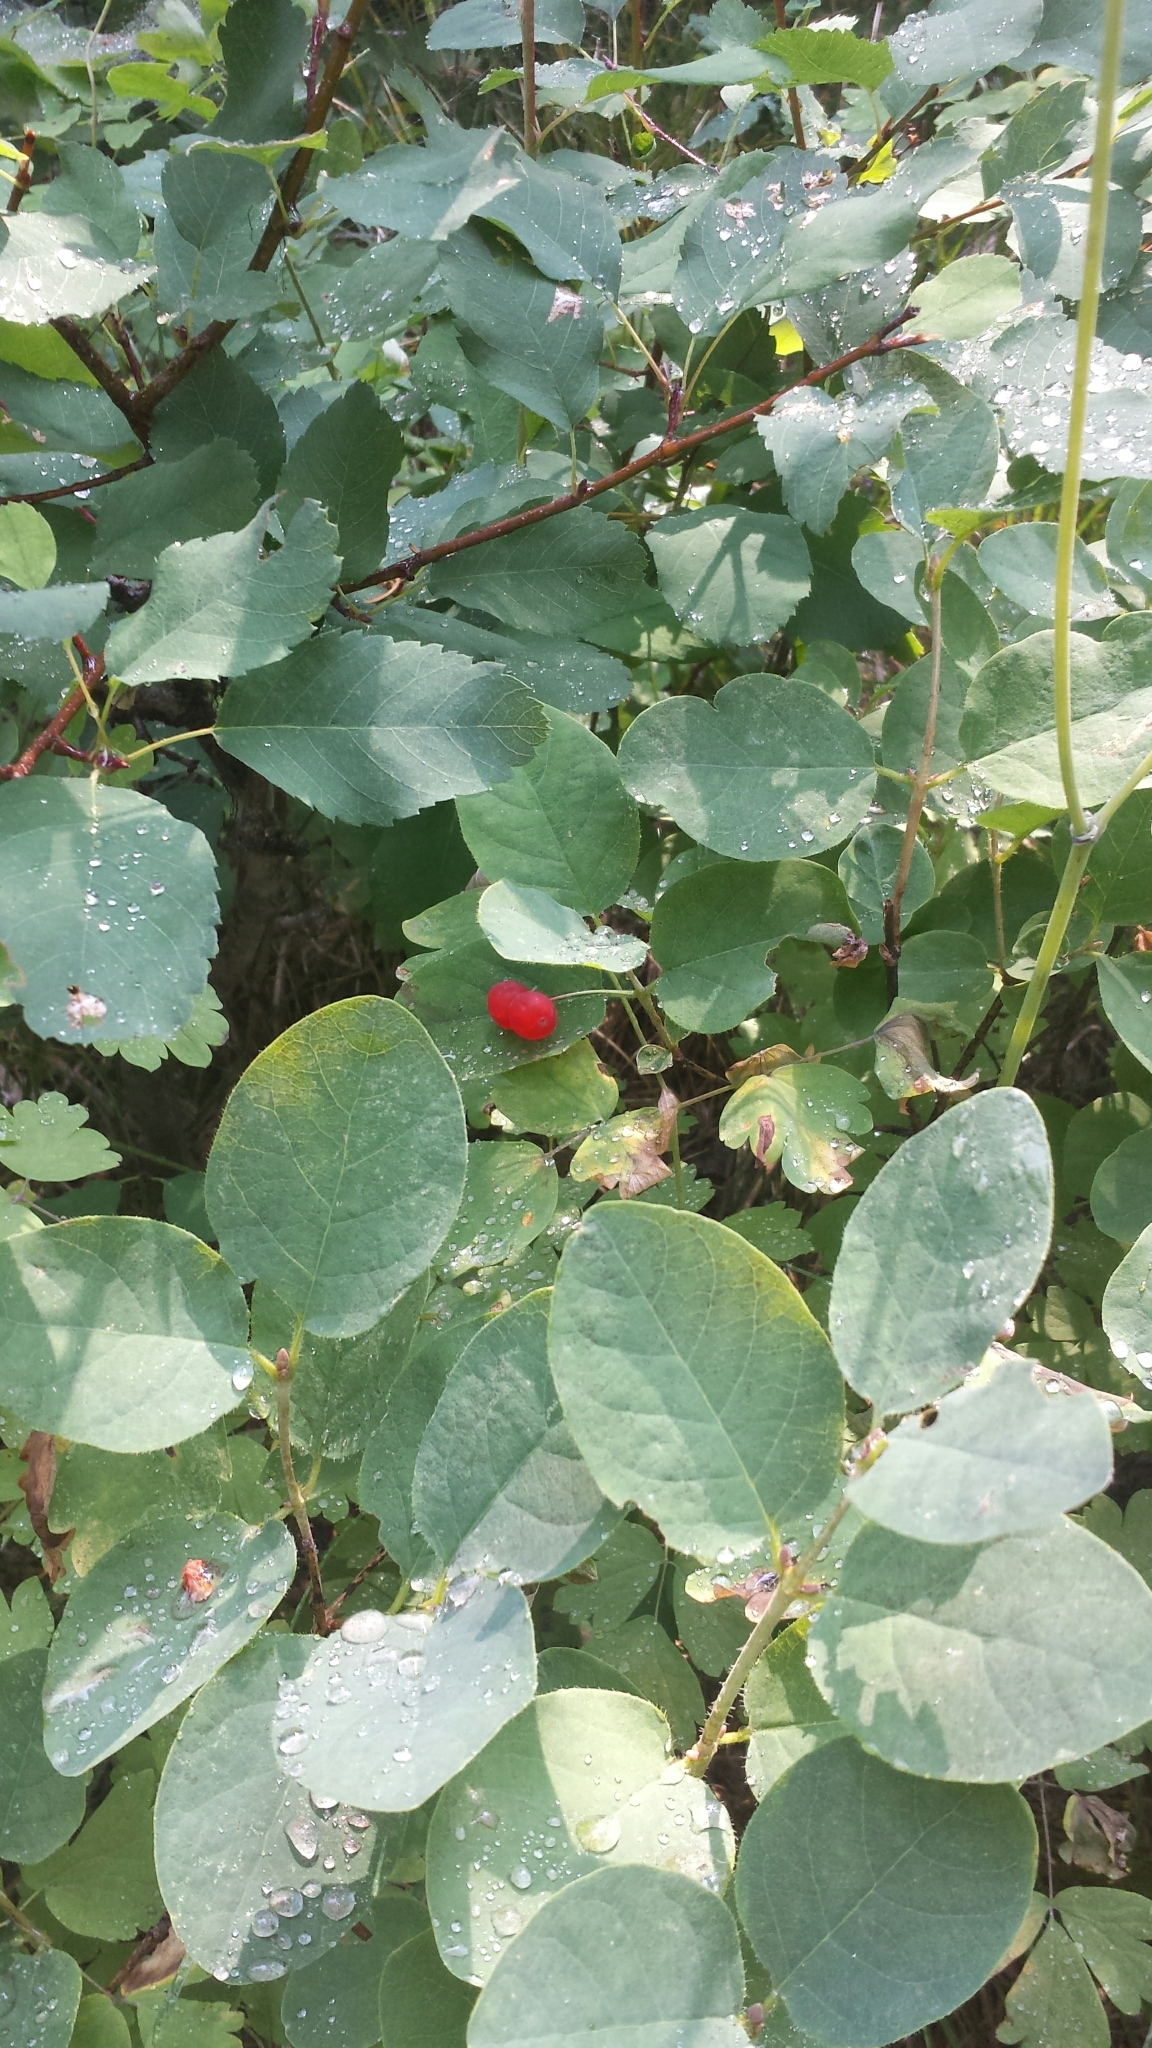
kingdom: Plantae
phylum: Tracheophyta
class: Magnoliopsida
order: Dipsacales
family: Caprifoliaceae
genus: Lonicera
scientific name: Lonicera utahensis
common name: Utah honeysuckle
